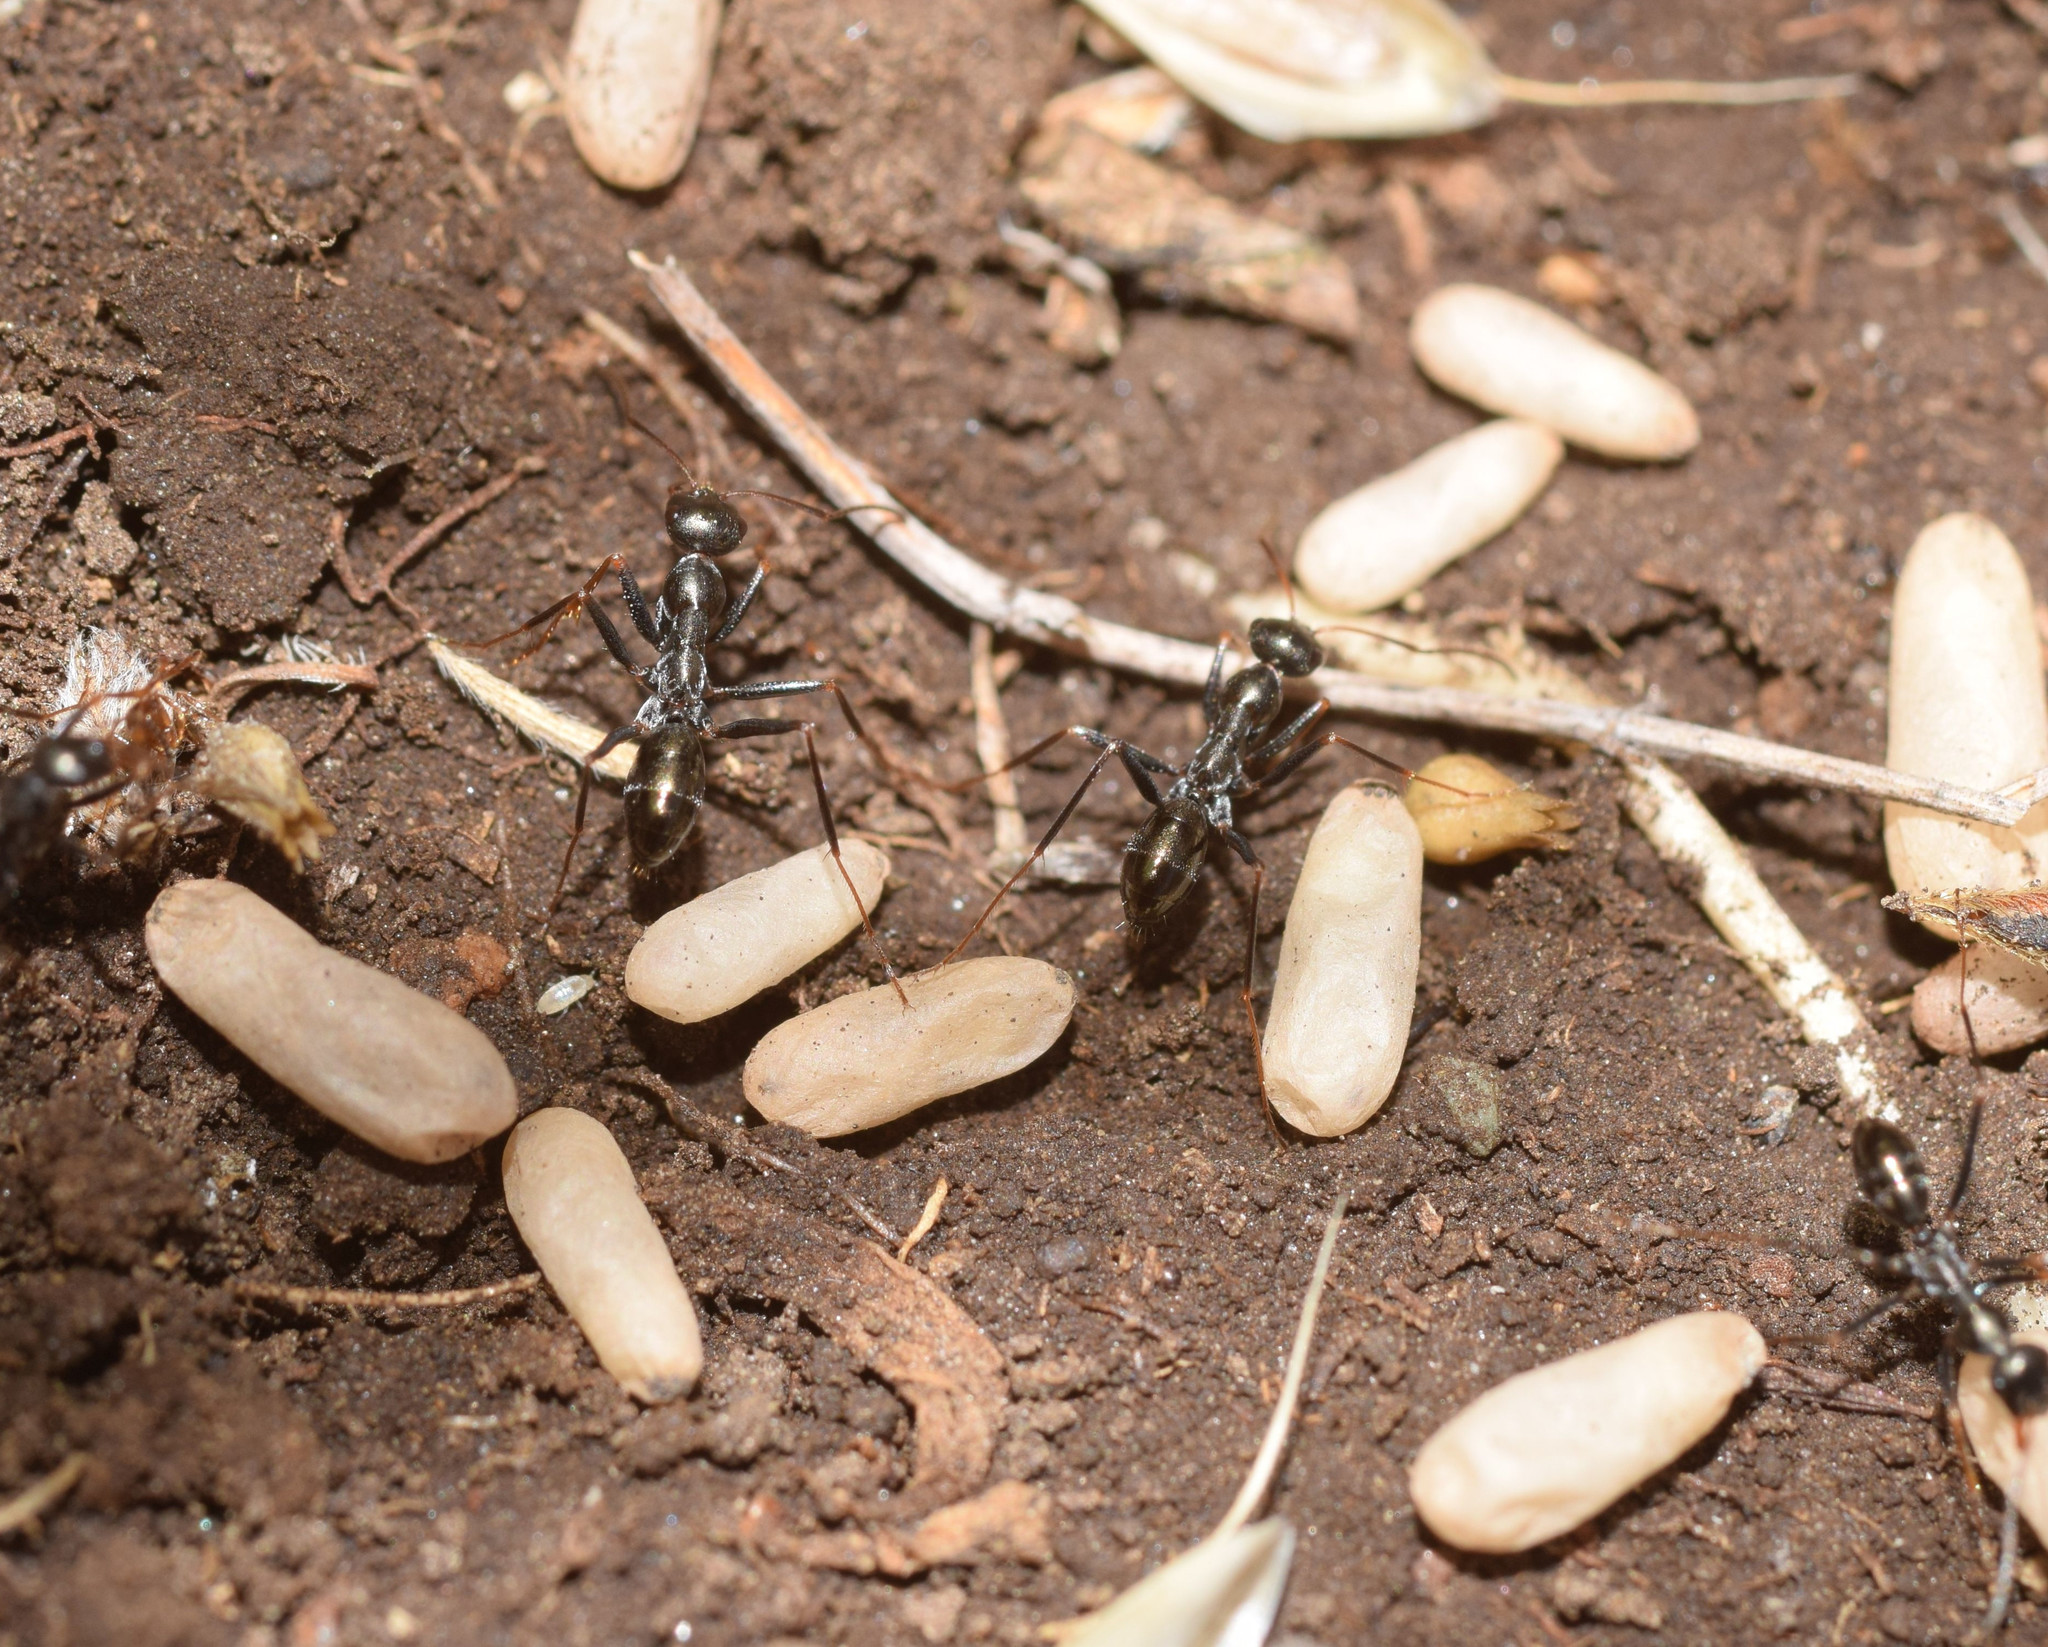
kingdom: Animalia
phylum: Arthropoda
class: Insecta
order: Hymenoptera
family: Formicidae
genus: Cataglyphis
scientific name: Cataglyphis aenescens
